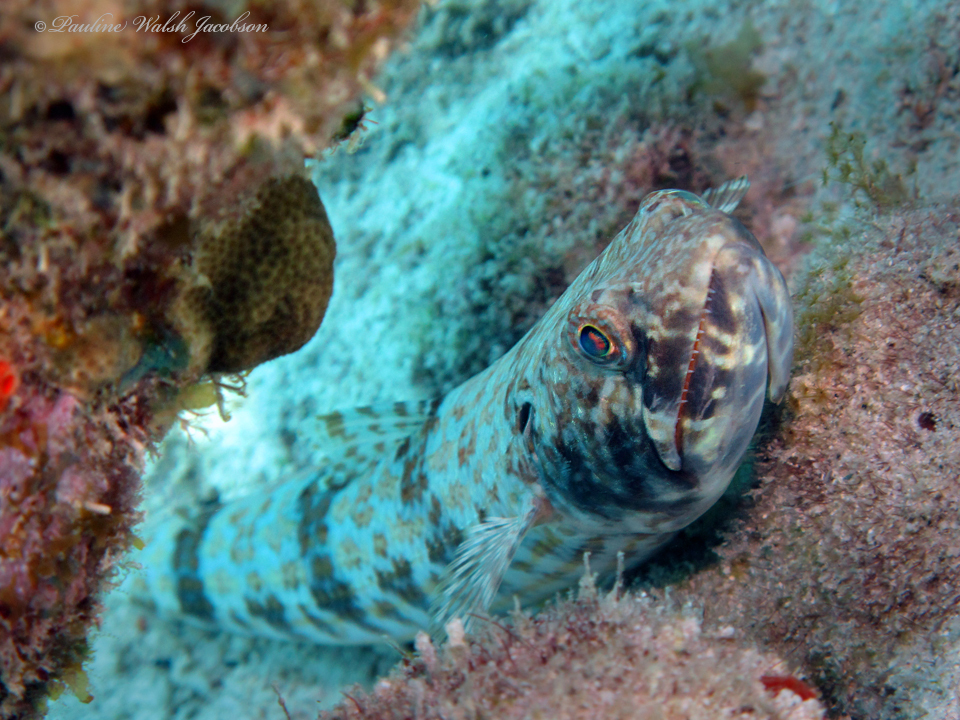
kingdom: Animalia
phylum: Chordata
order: Aulopiformes
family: Synodontidae
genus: Synodus
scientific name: Synodus intermedius
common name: Sand diver
